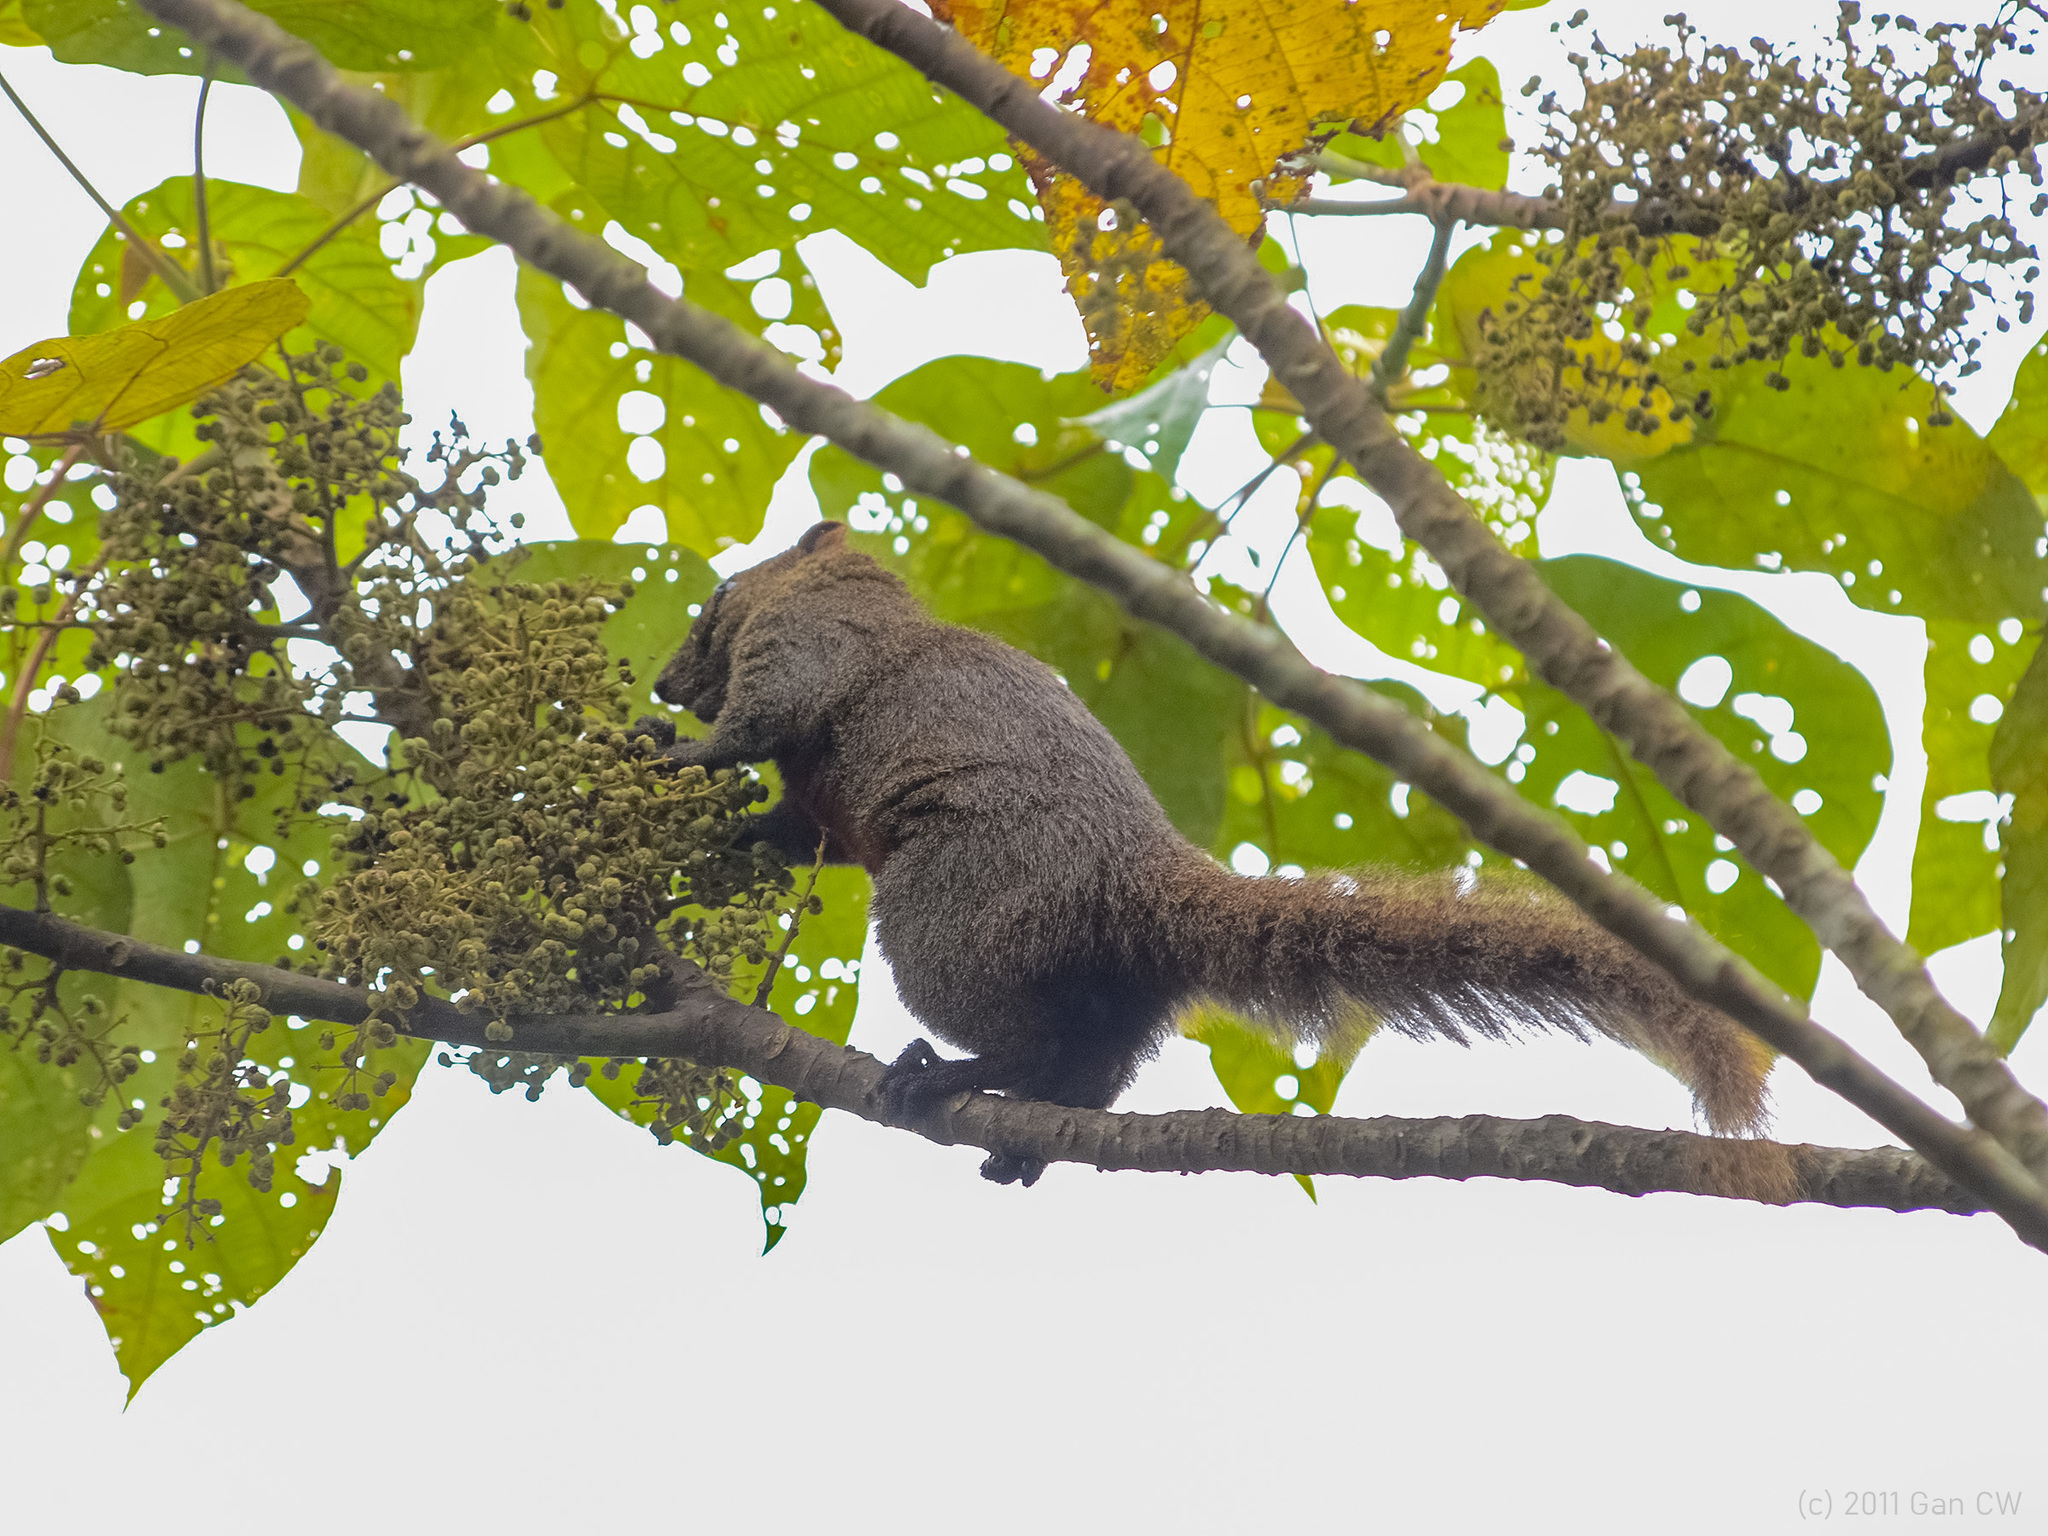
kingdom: Animalia
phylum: Chordata
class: Mammalia
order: Rodentia
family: Sciuridae
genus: Callosciurus
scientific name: Callosciurus erythraeus
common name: Pallas's squirrel
